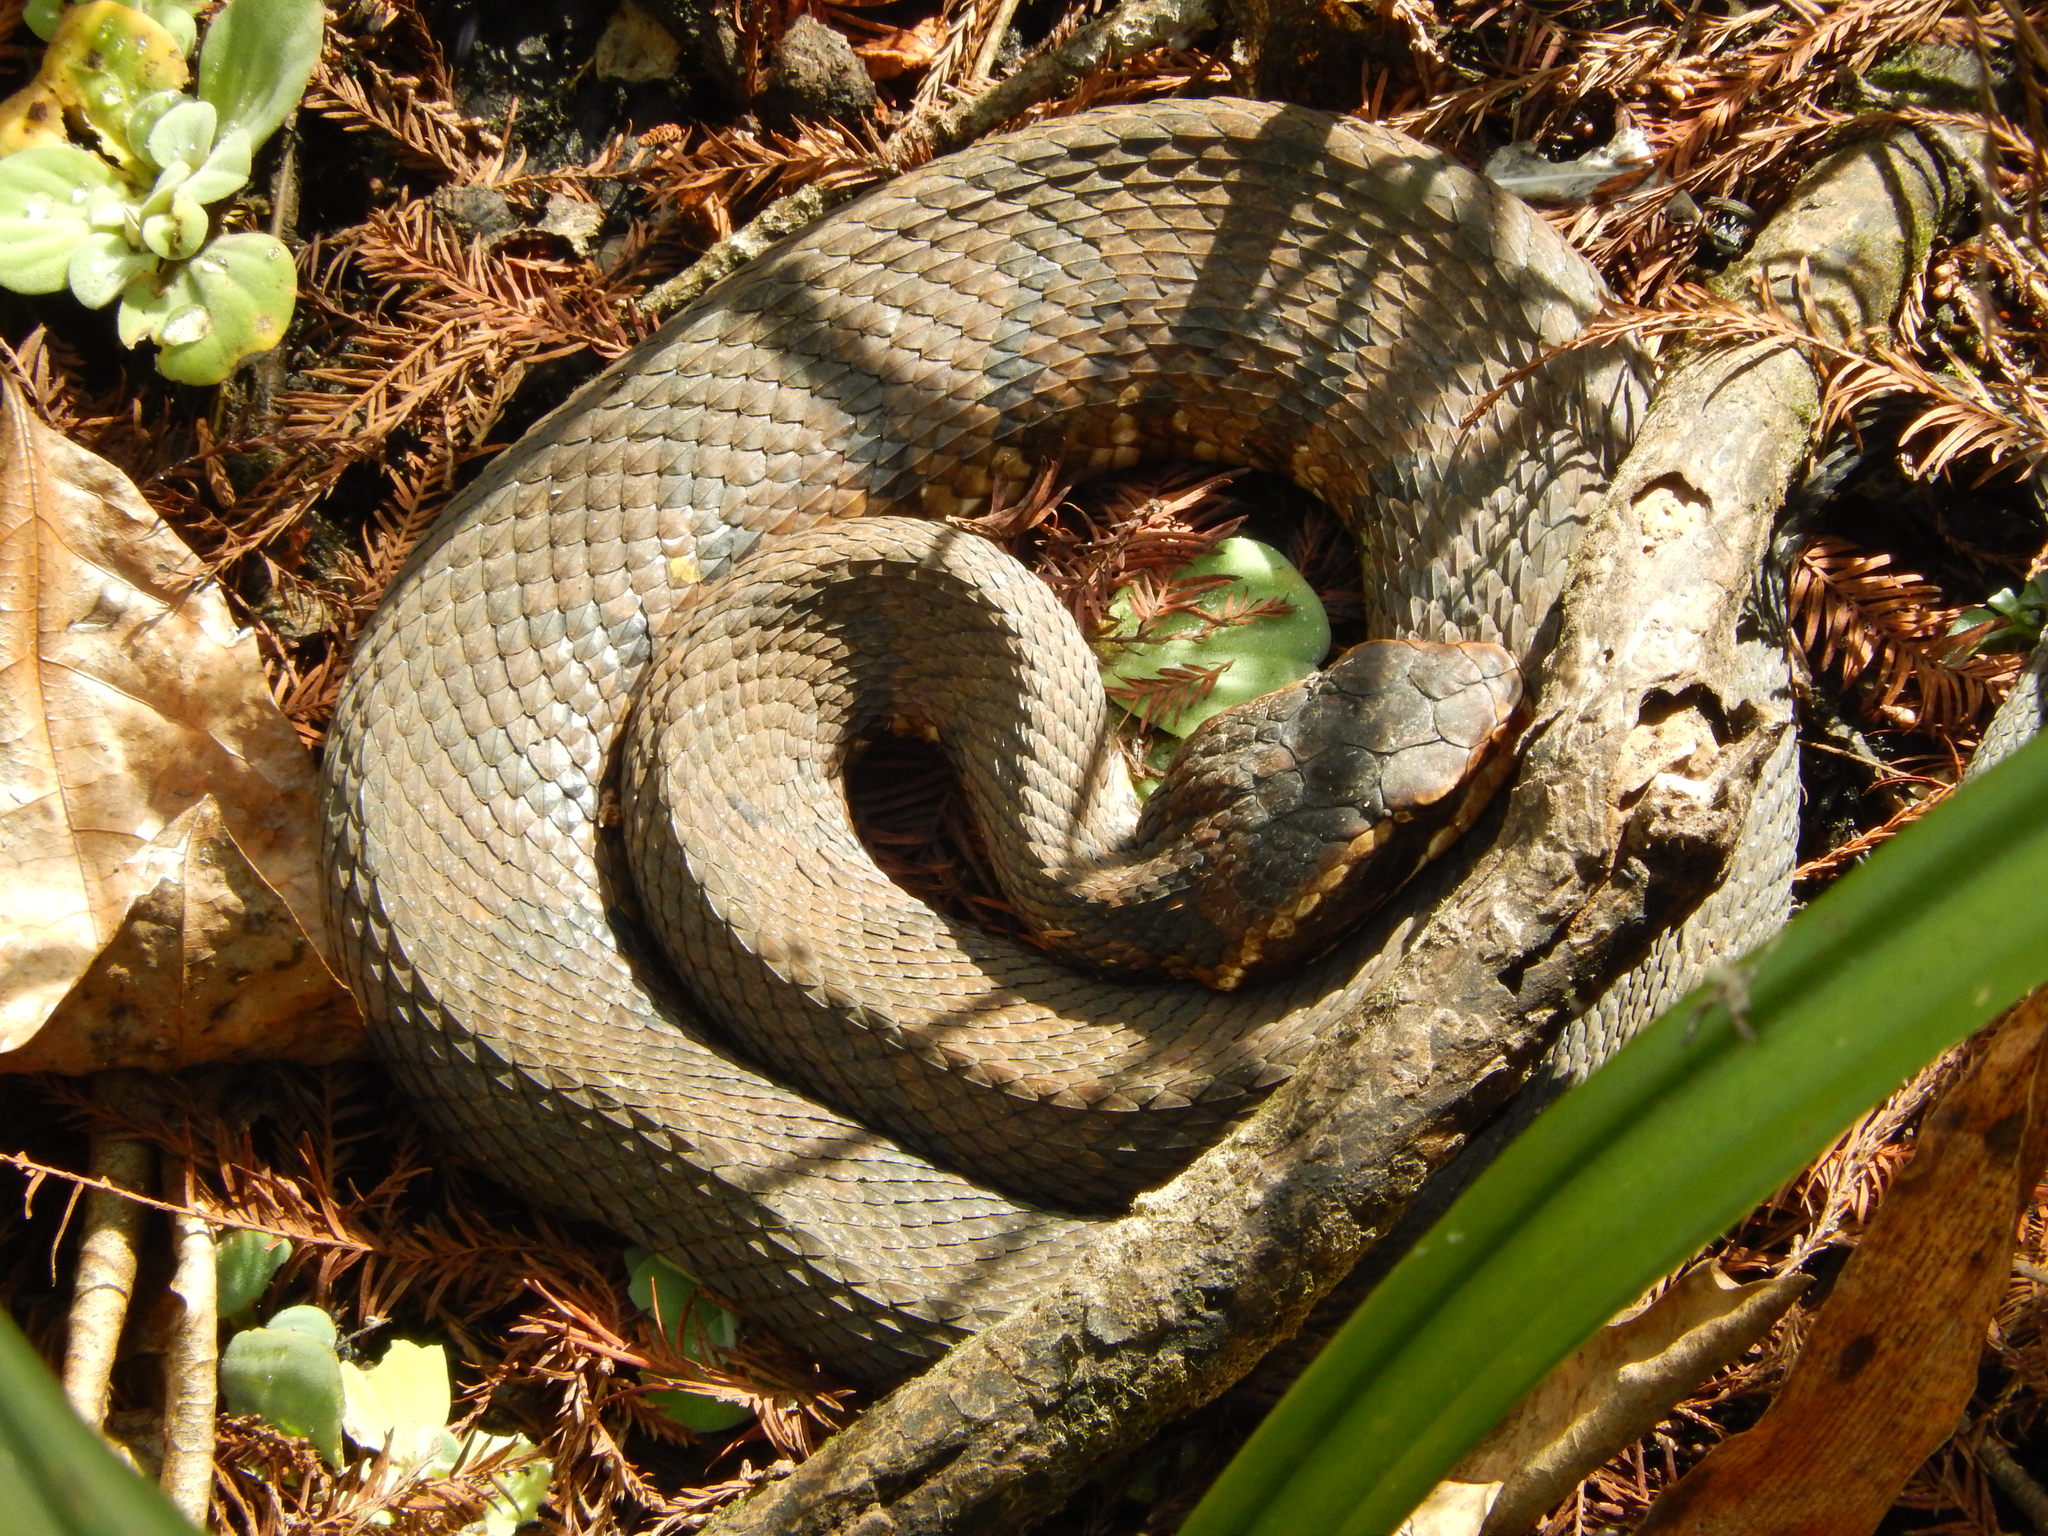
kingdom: Animalia
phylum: Chordata
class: Squamata
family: Viperidae
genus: Agkistrodon
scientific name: Agkistrodon conanti
